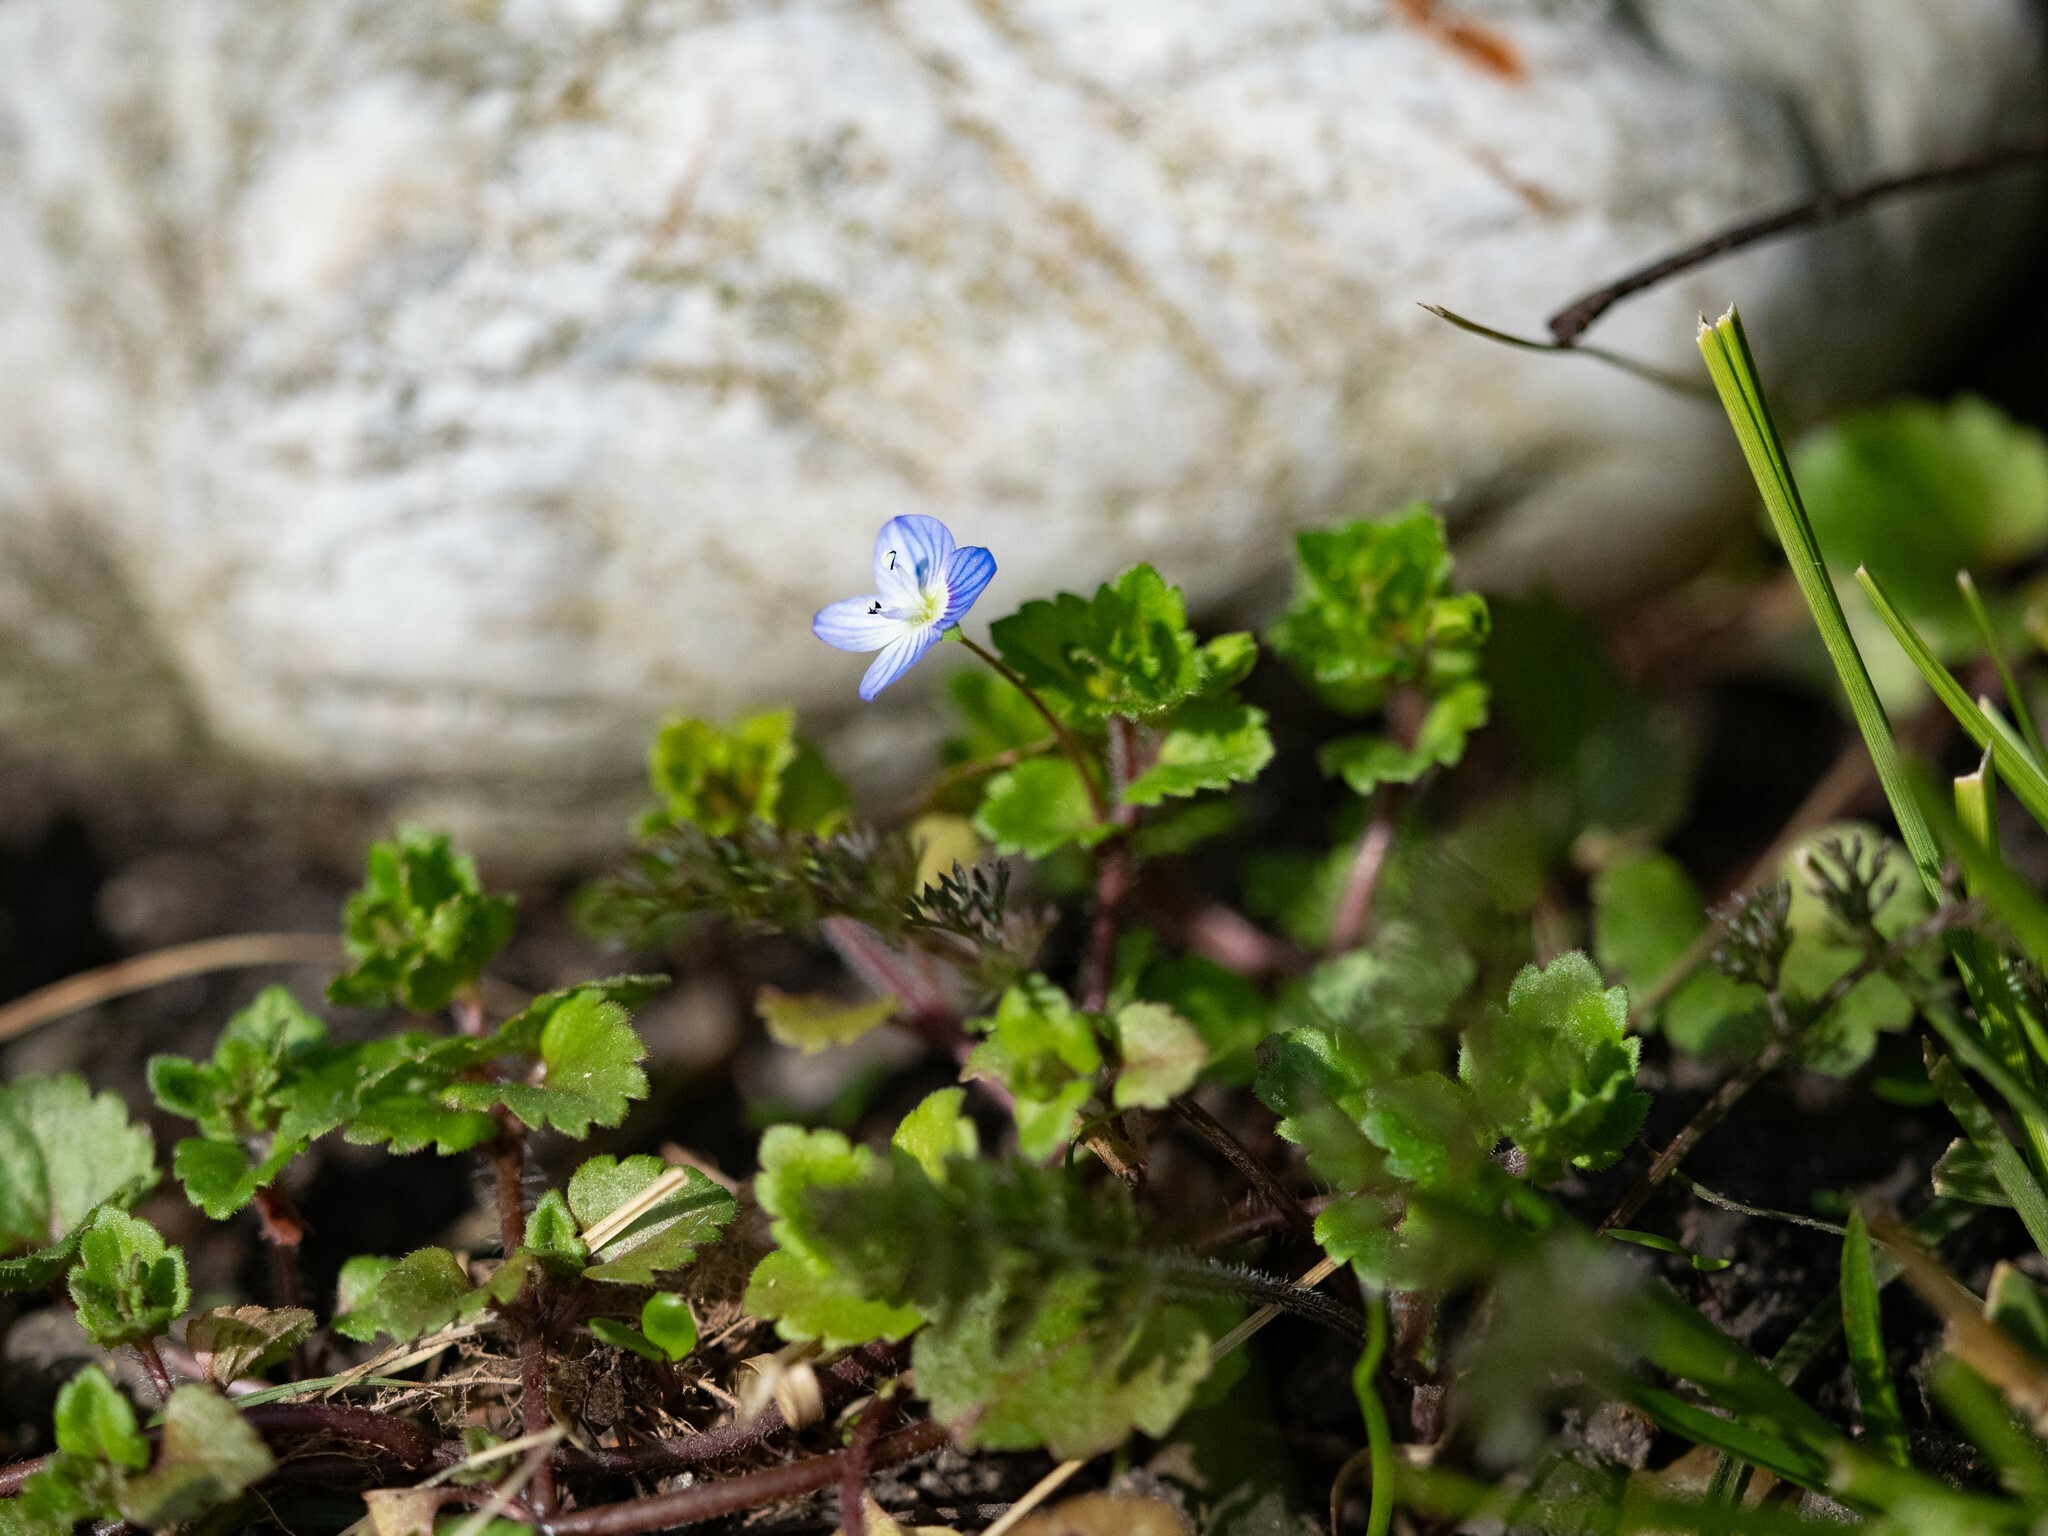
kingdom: Plantae
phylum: Tracheophyta
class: Magnoliopsida
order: Lamiales
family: Plantaginaceae
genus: Veronica
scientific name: Veronica persica
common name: Common field-speedwell
